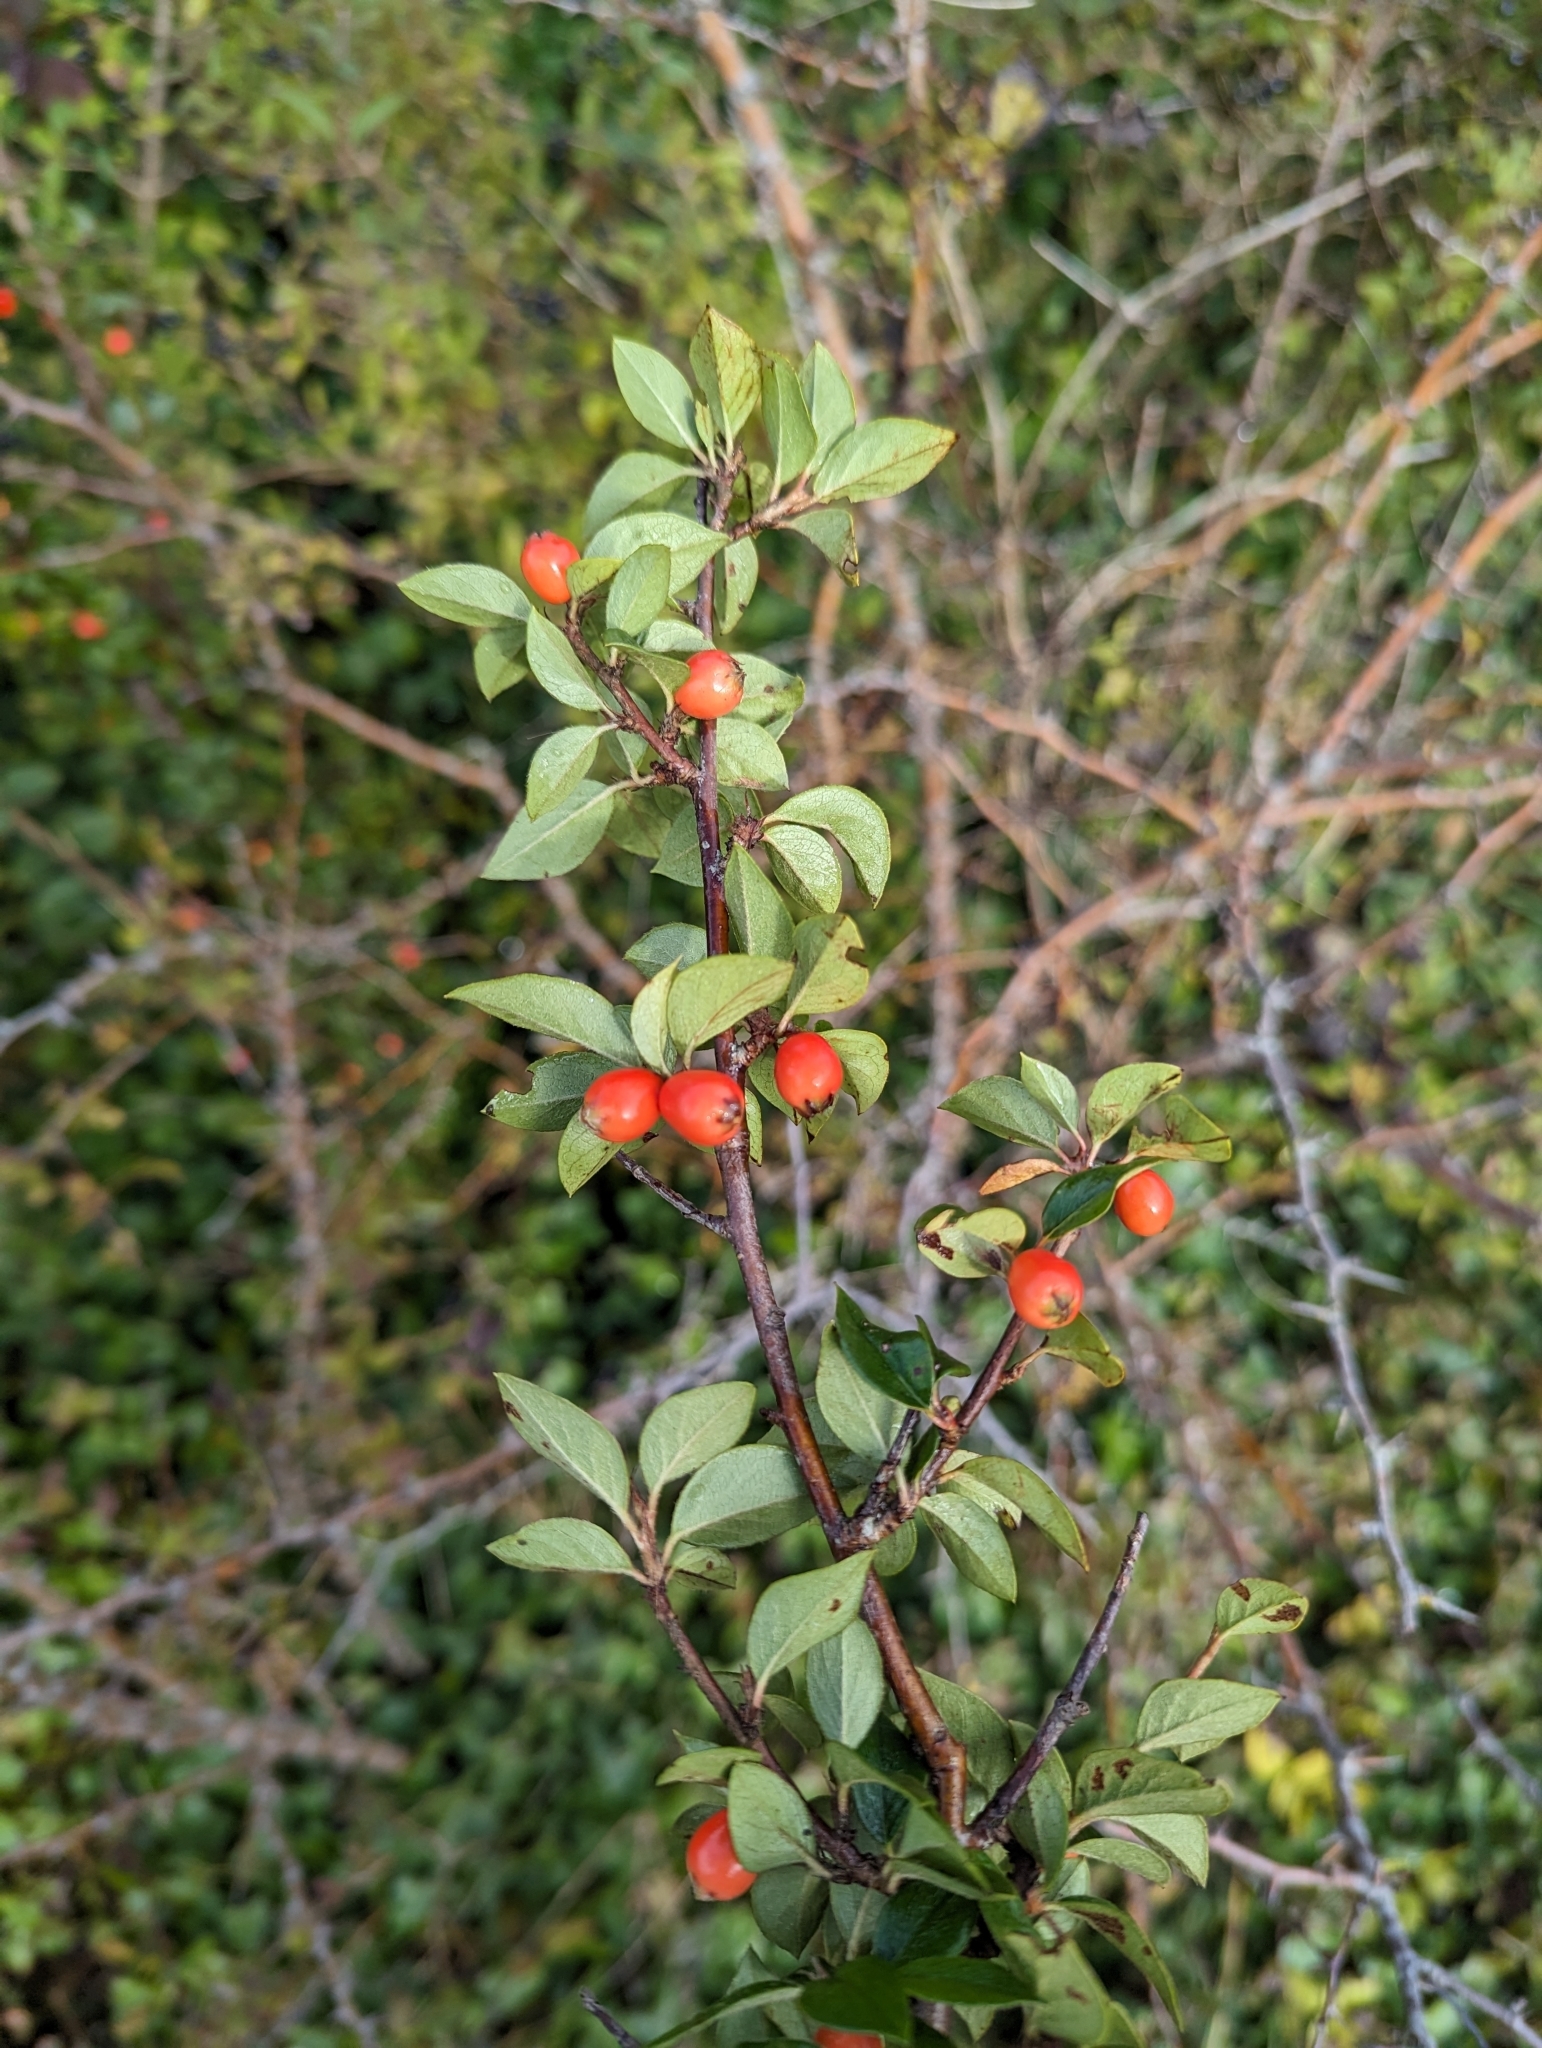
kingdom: Plantae
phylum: Tracheophyta
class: Magnoliopsida
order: Rosales
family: Rosaceae
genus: Cotoneaster
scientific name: Cotoneaster simonsii
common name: Himalayan cotoneaster
